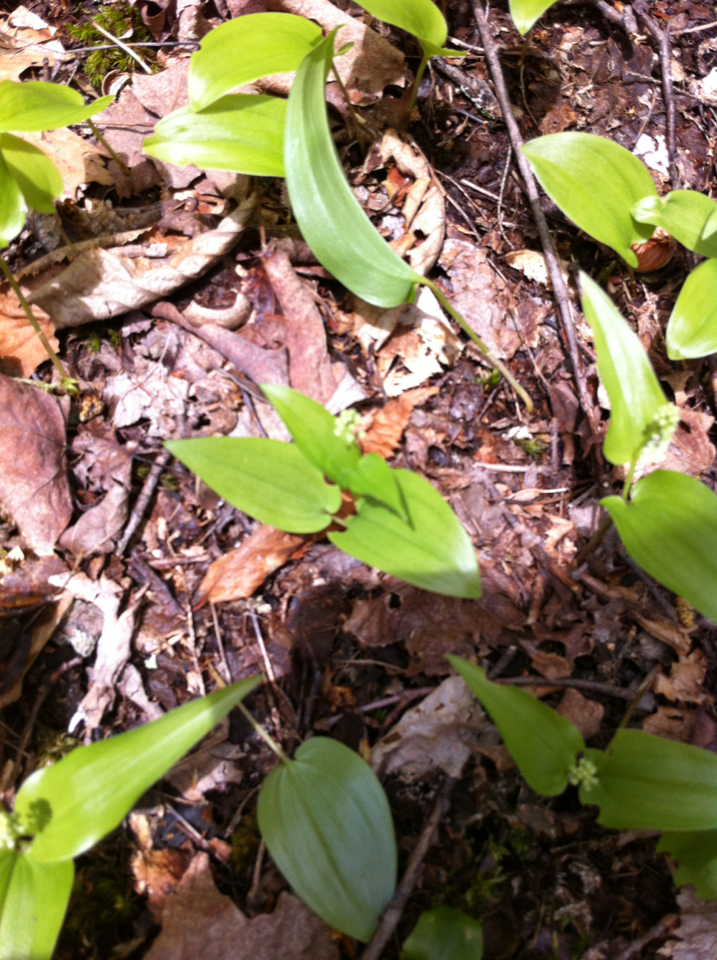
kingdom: Plantae
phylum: Tracheophyta
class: Liliopsida
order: Asparagales
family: Asparagaceae
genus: Maianthemum
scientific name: Maianthemum canadense
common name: False lily-of-the-valley
